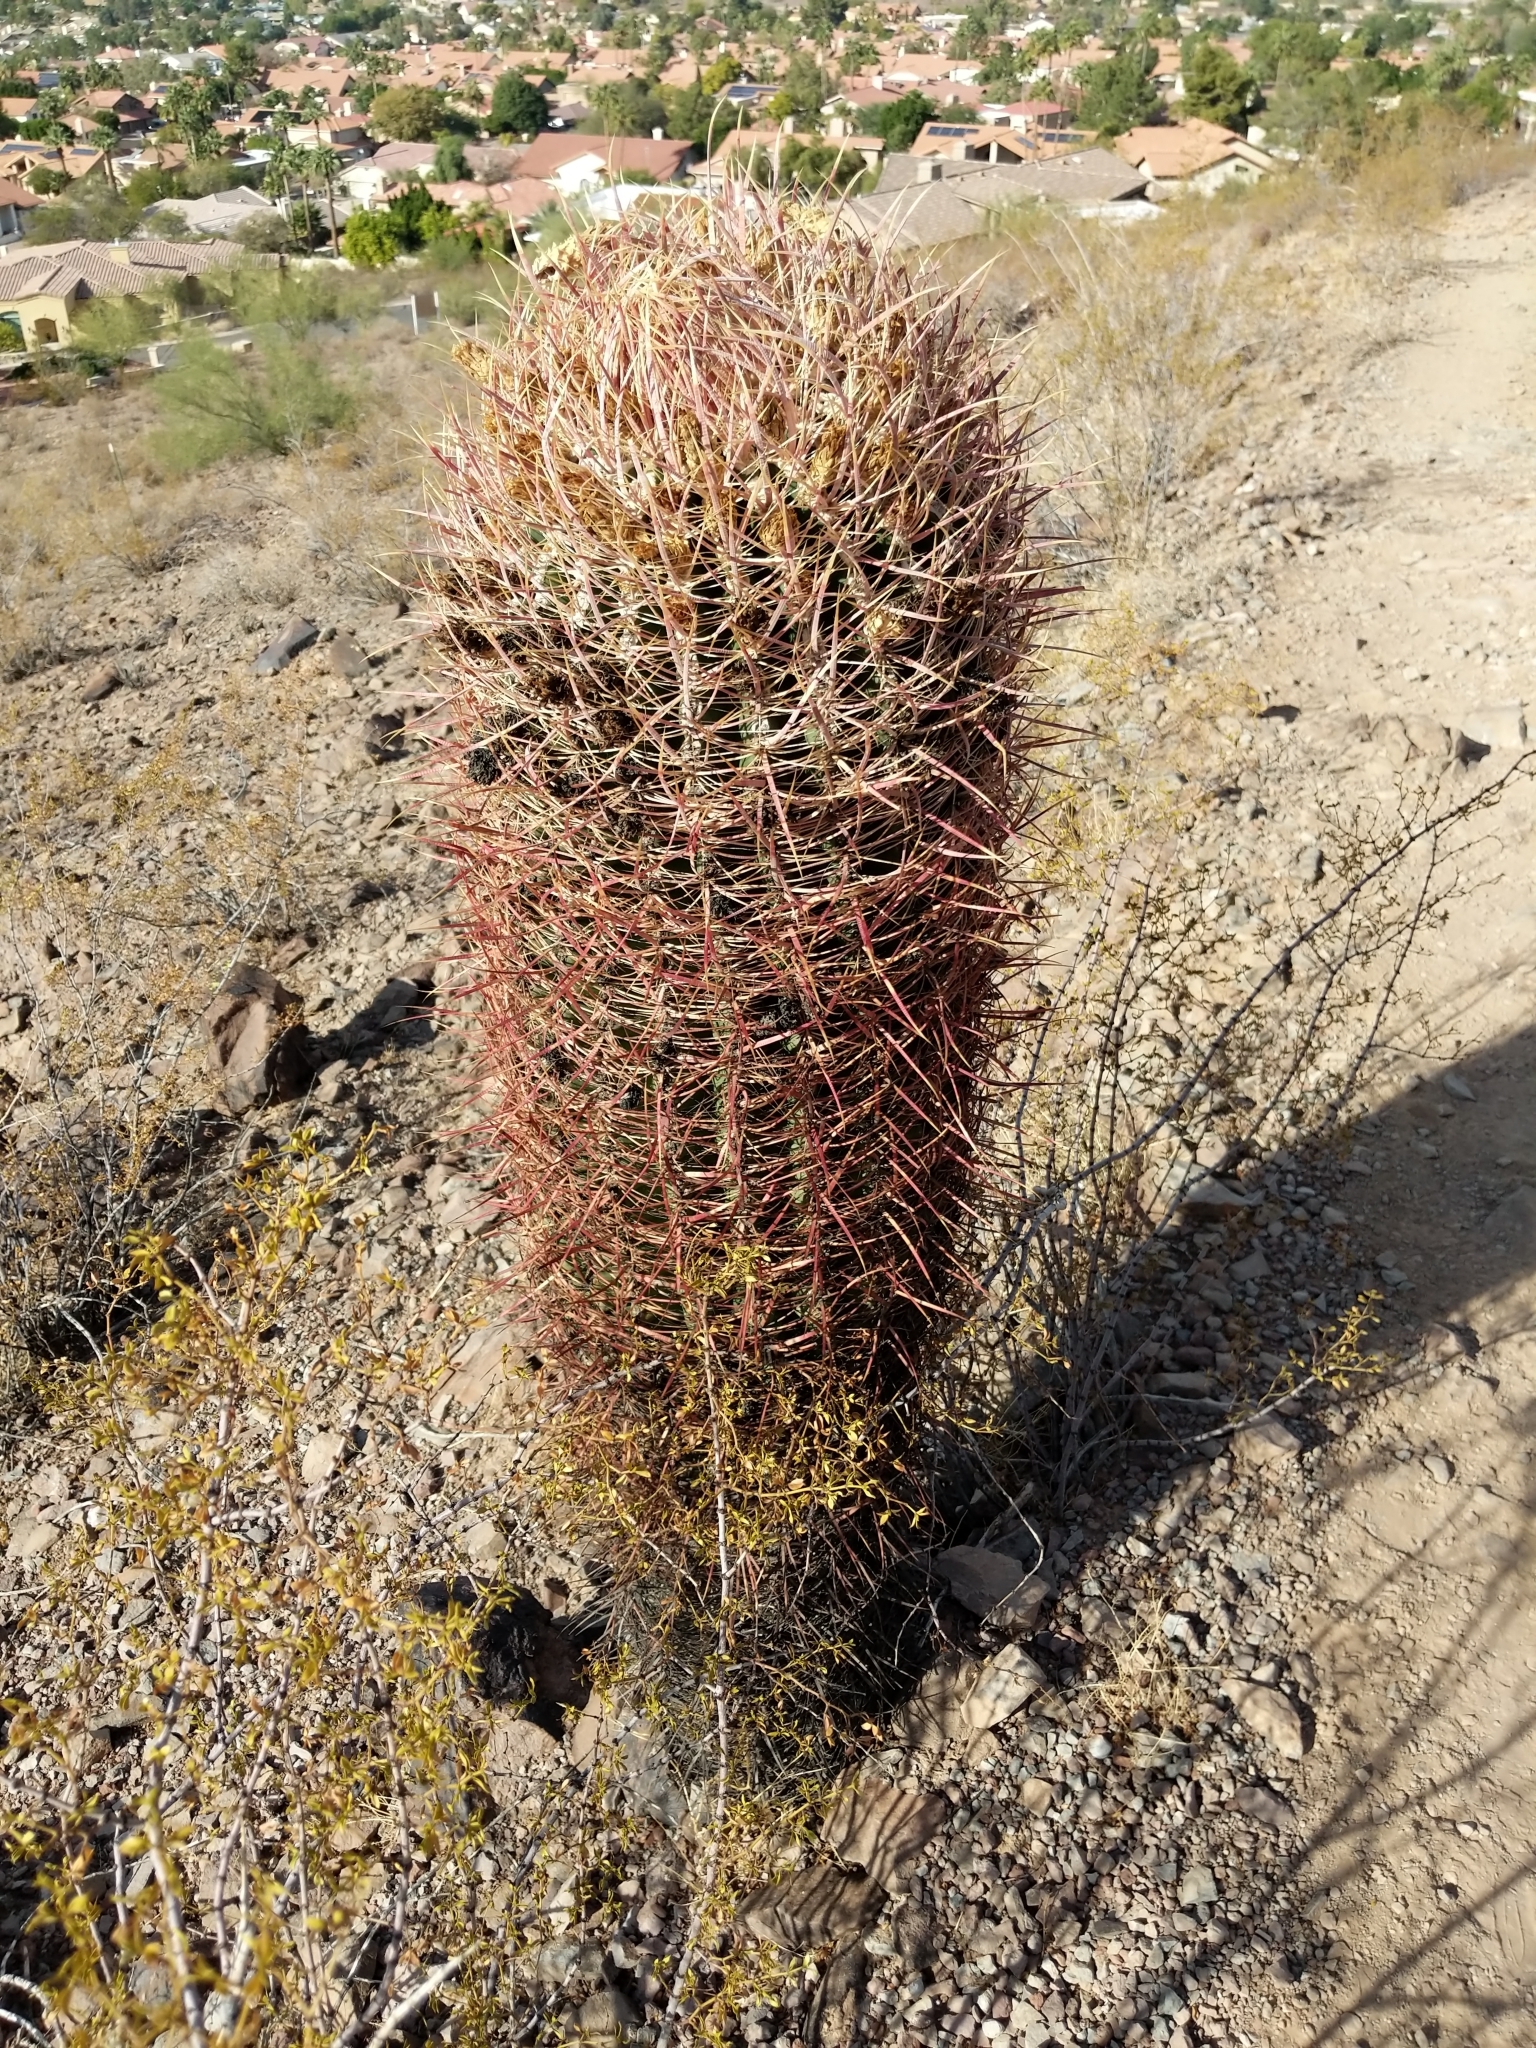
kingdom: Plantae
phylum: Tracheophyta
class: Magnoliopsida
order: Caryophyllales
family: Cactaceae
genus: Ferocactus
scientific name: Ferocactus cylindraceus
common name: California barrel cactus
